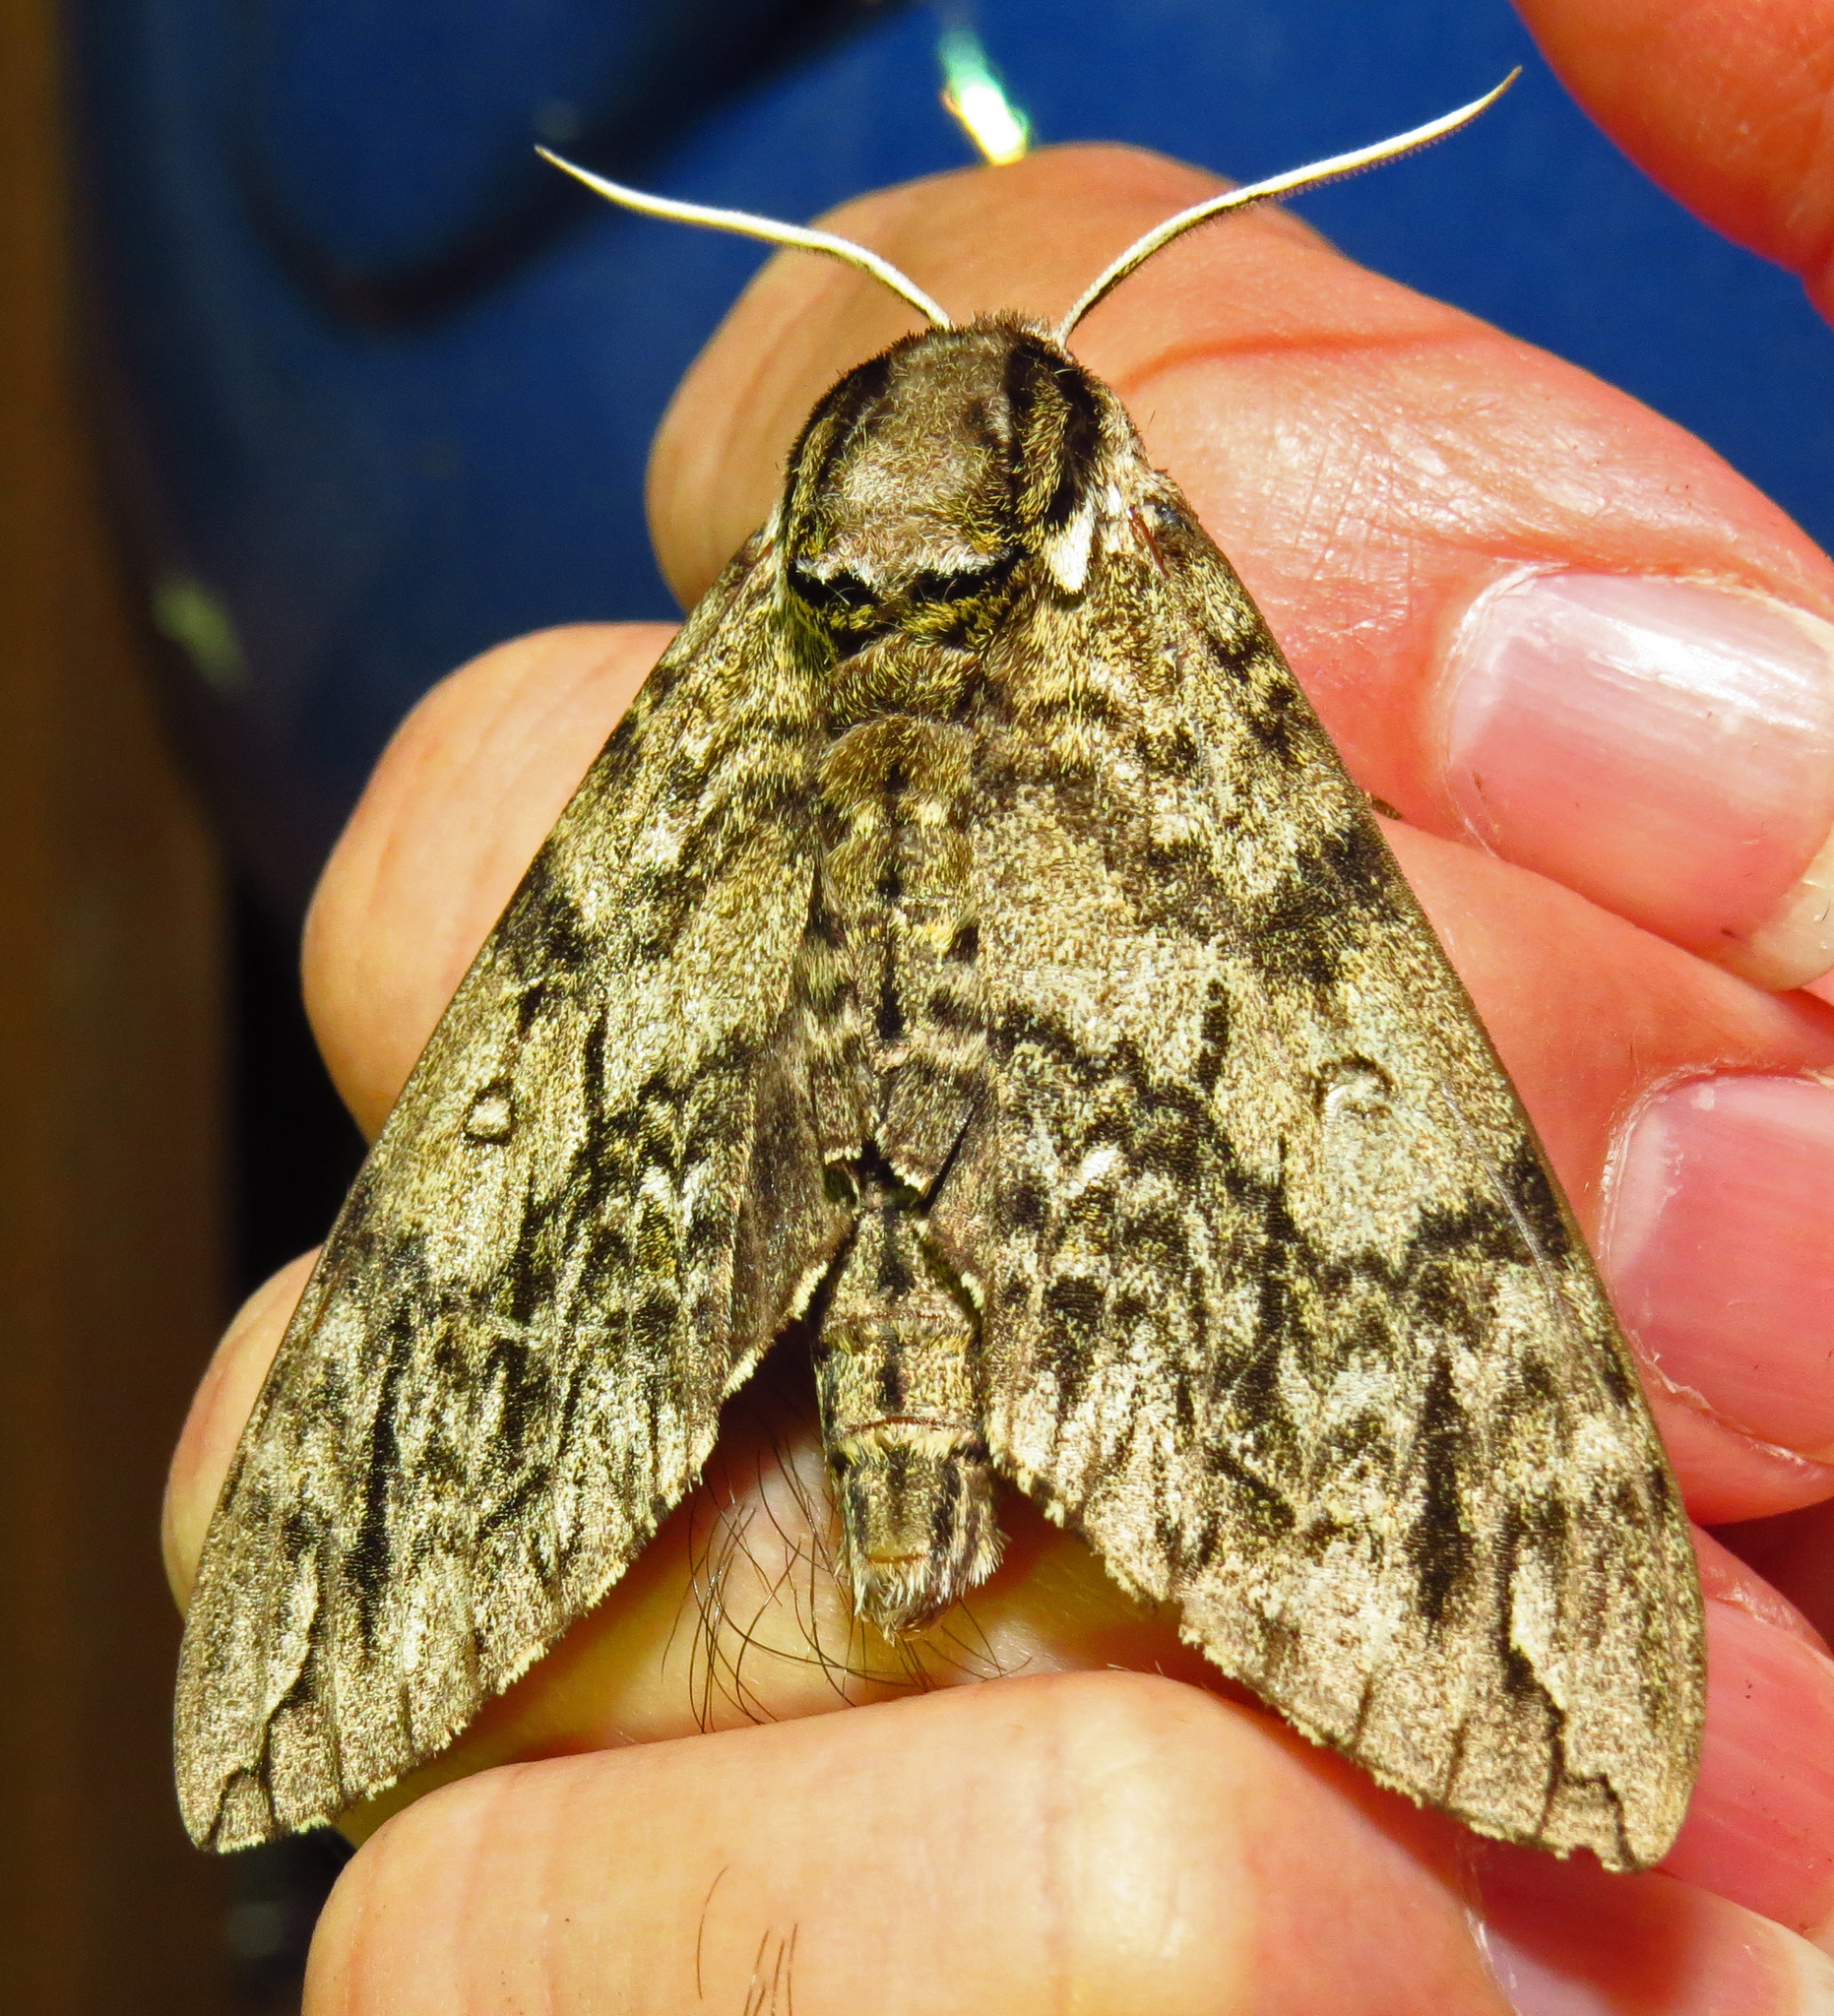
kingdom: Animalia
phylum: Arthropoda
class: Insecta
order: Lepidoptera
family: Sphingidae
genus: Ceratomia
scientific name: Ceratomia undulosa
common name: Waved sphinx
